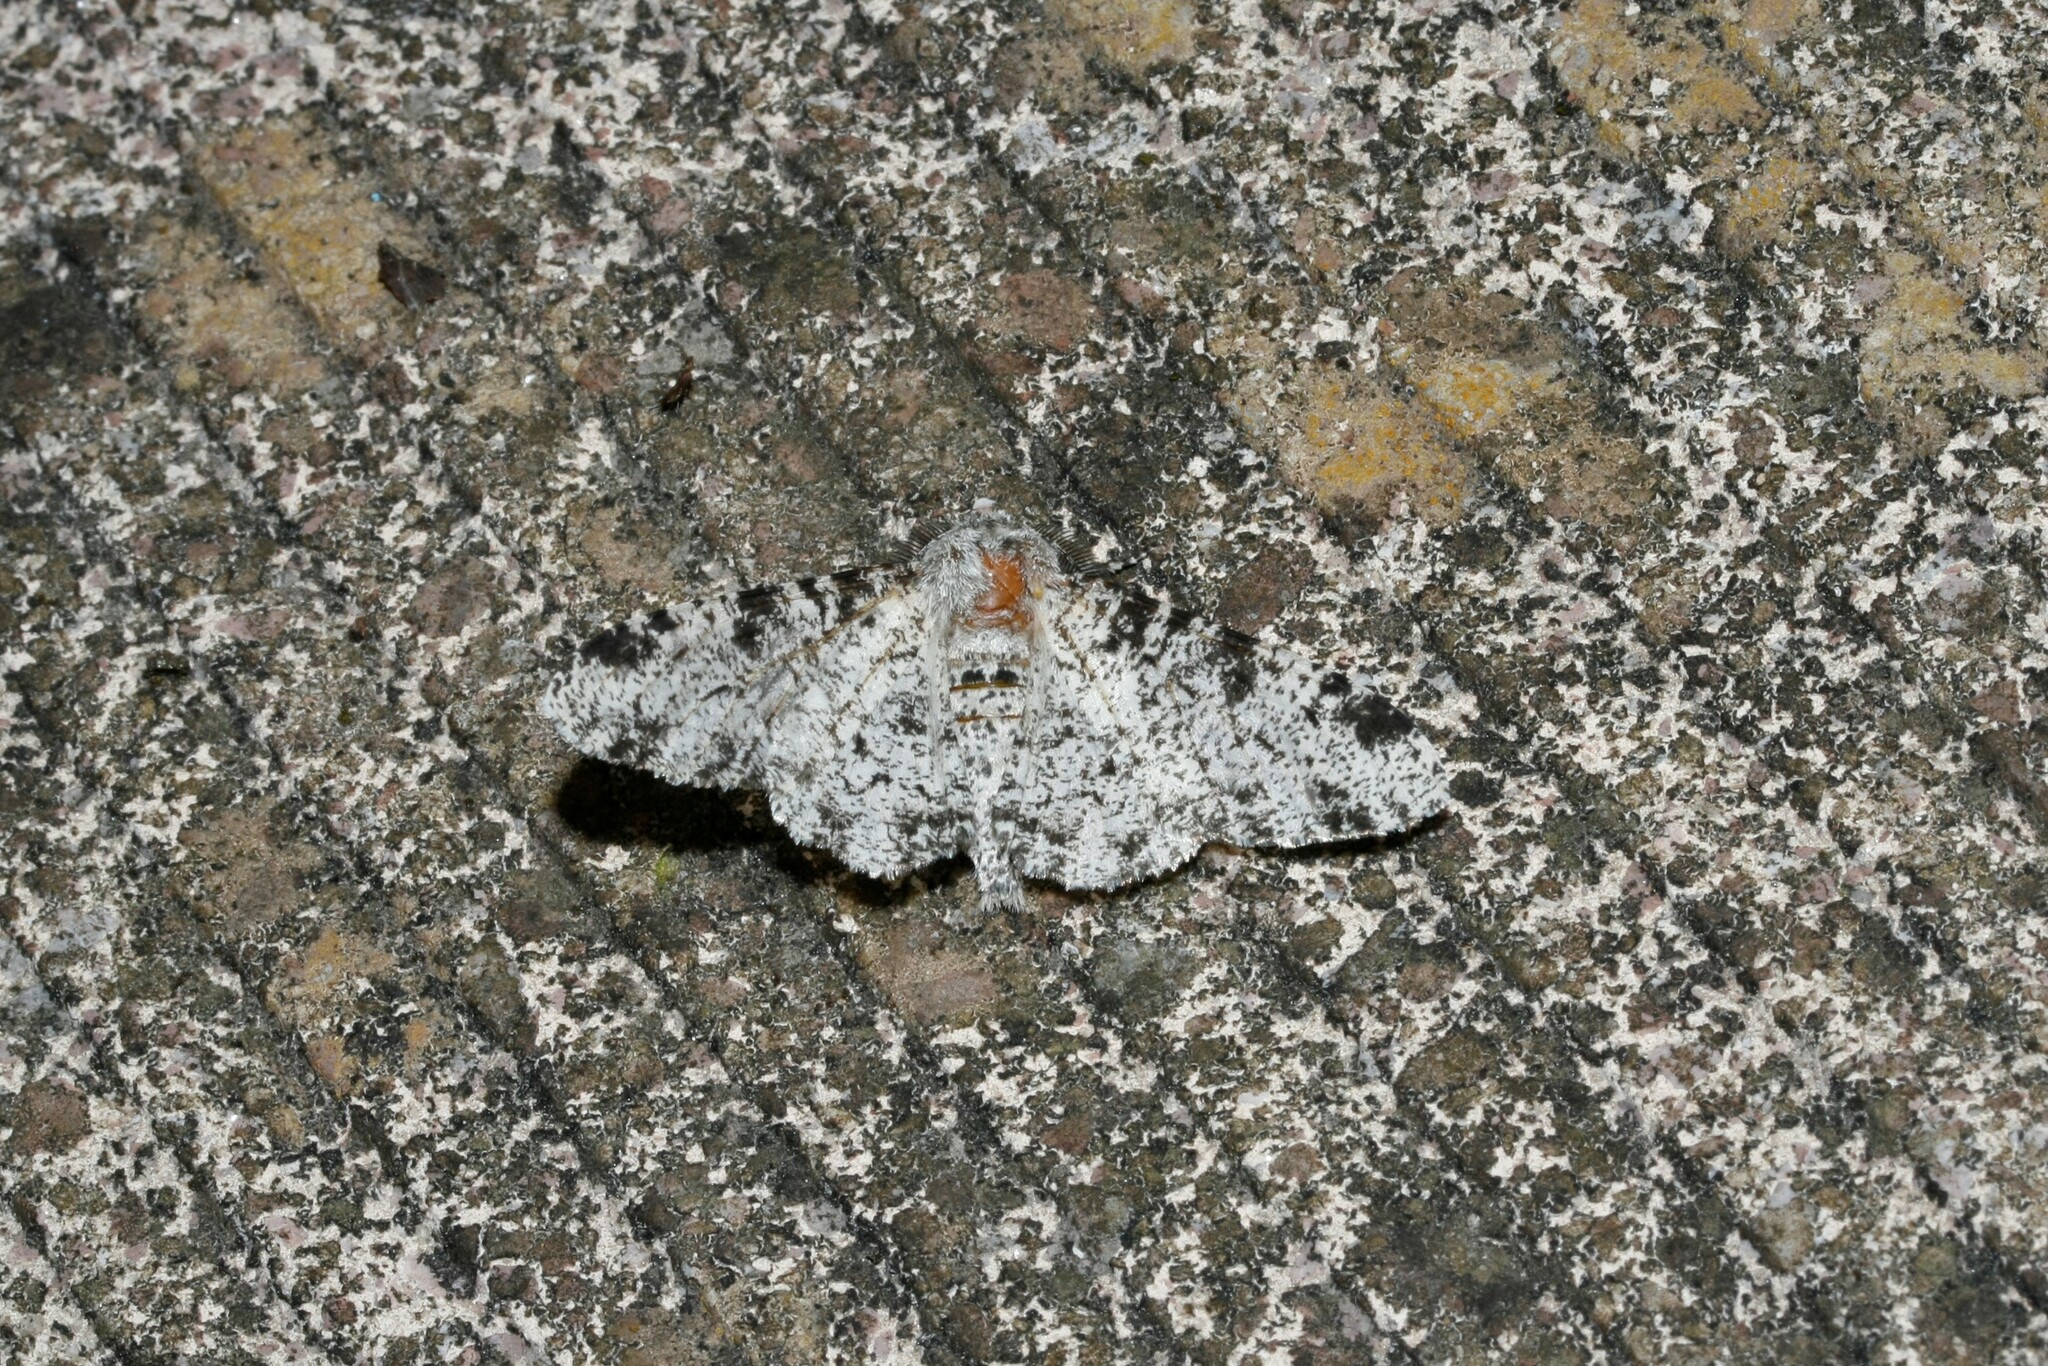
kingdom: Animalia
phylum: Arthropoda
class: Insecta
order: Lepidoptera
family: Geometridae
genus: Biston
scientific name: Biston betularia
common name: Peppered moth
